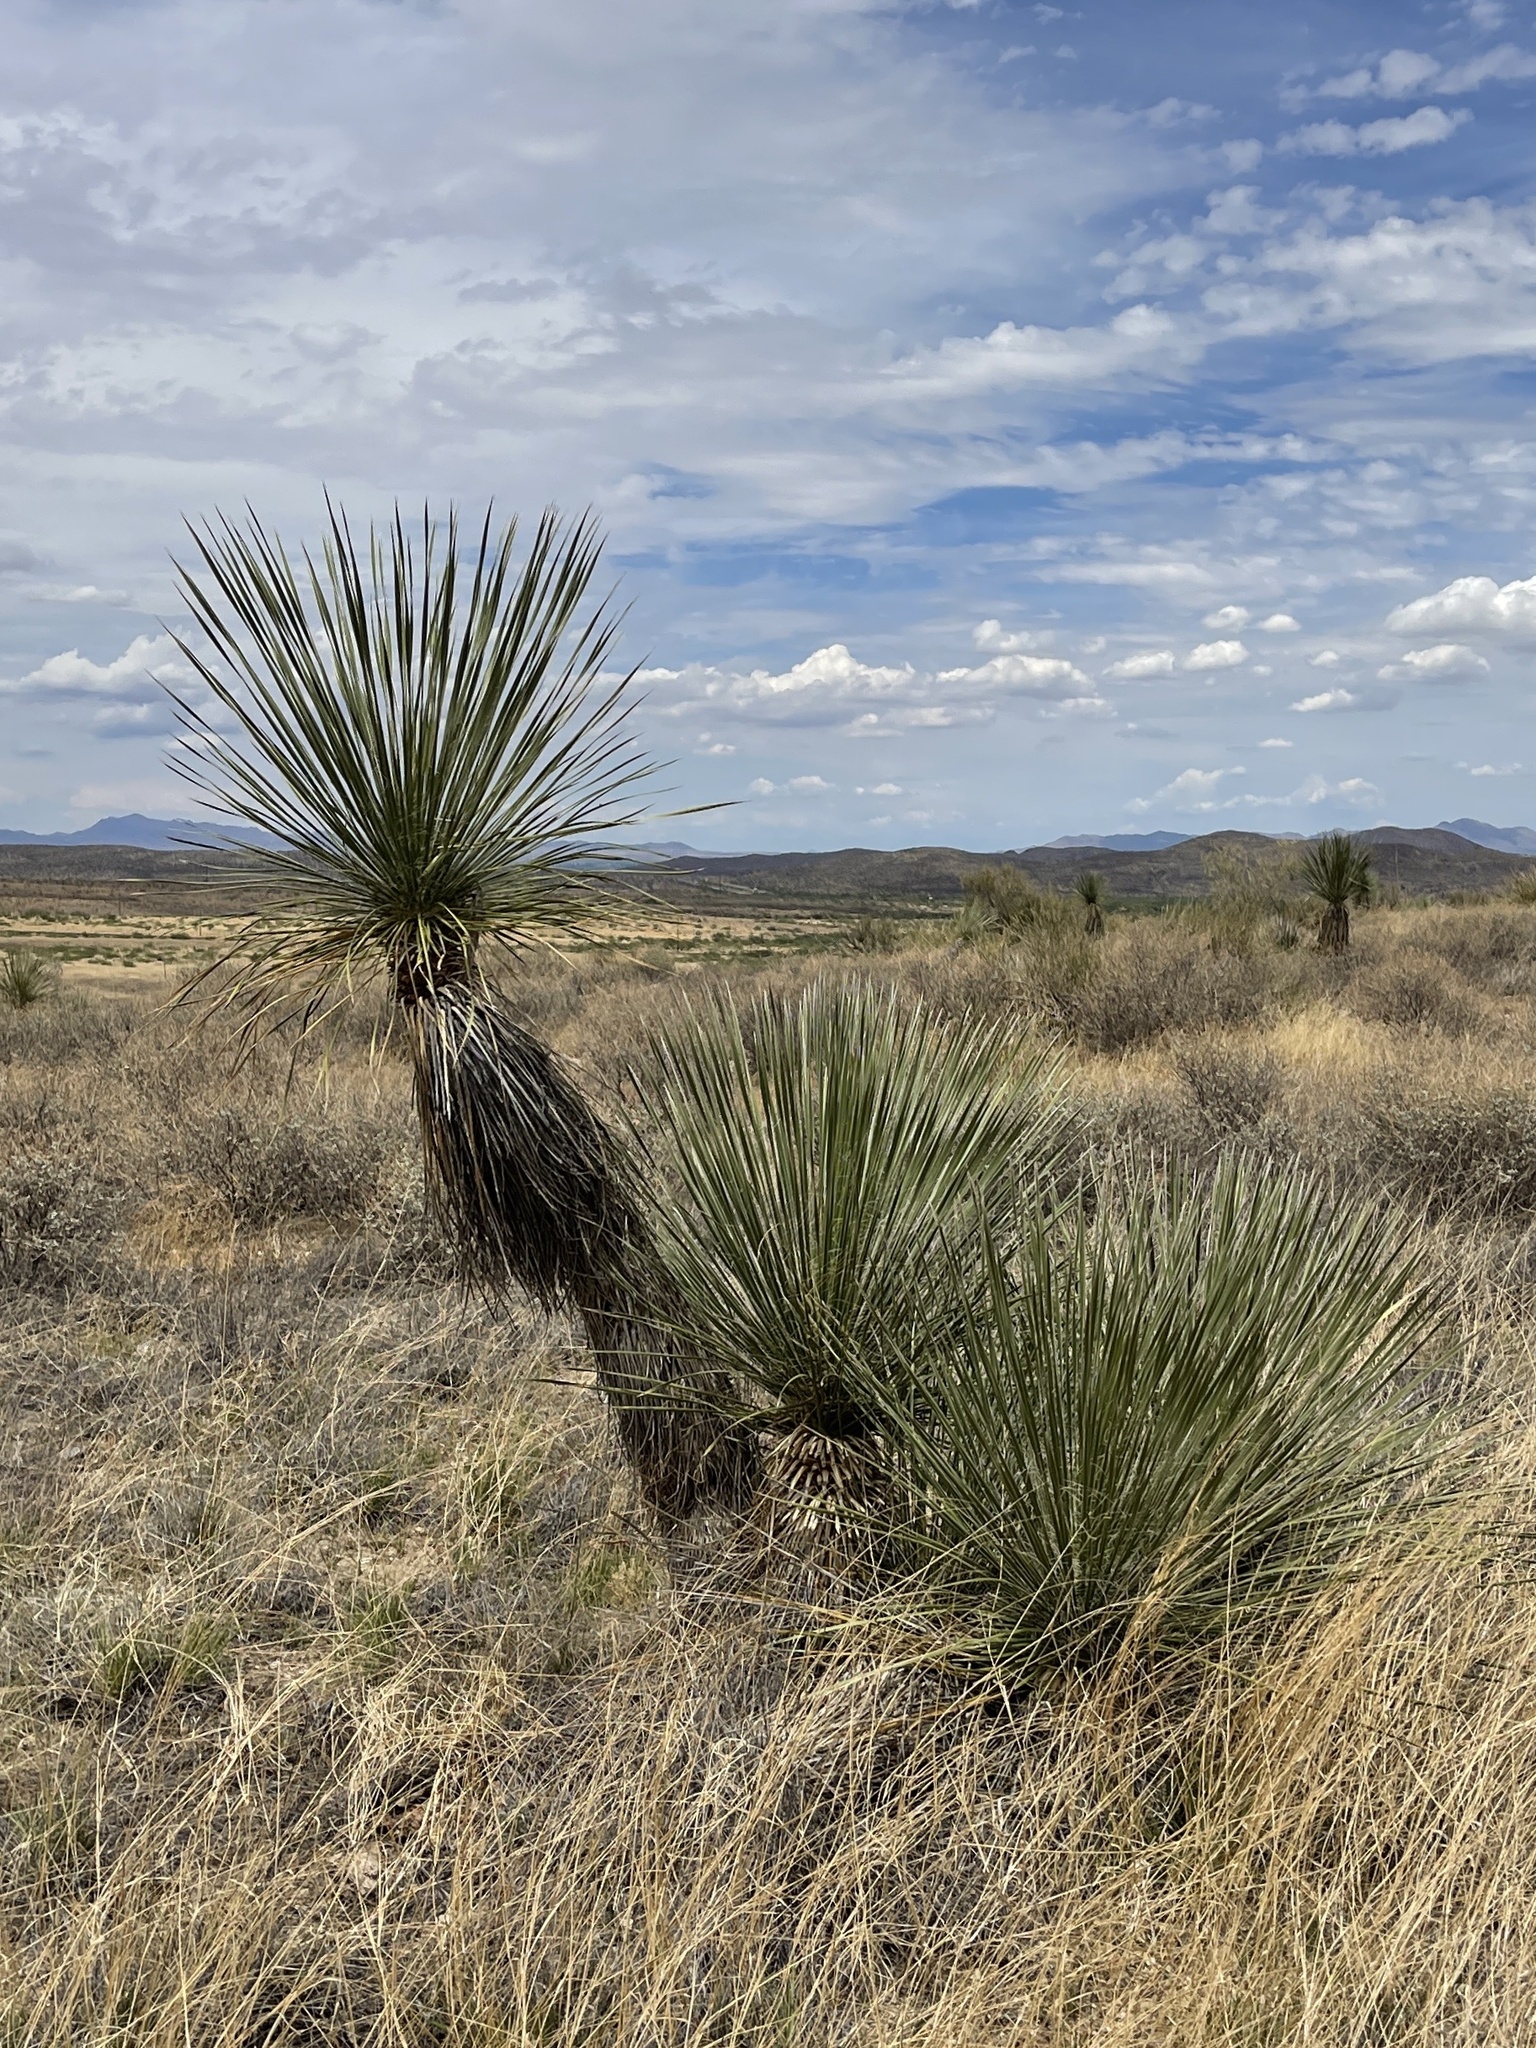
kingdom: Plantae
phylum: Tracheophyta
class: Liliopsida
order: Asparagales
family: Asparagaceae
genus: Yucca
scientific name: Yucca elata
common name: Palmella
